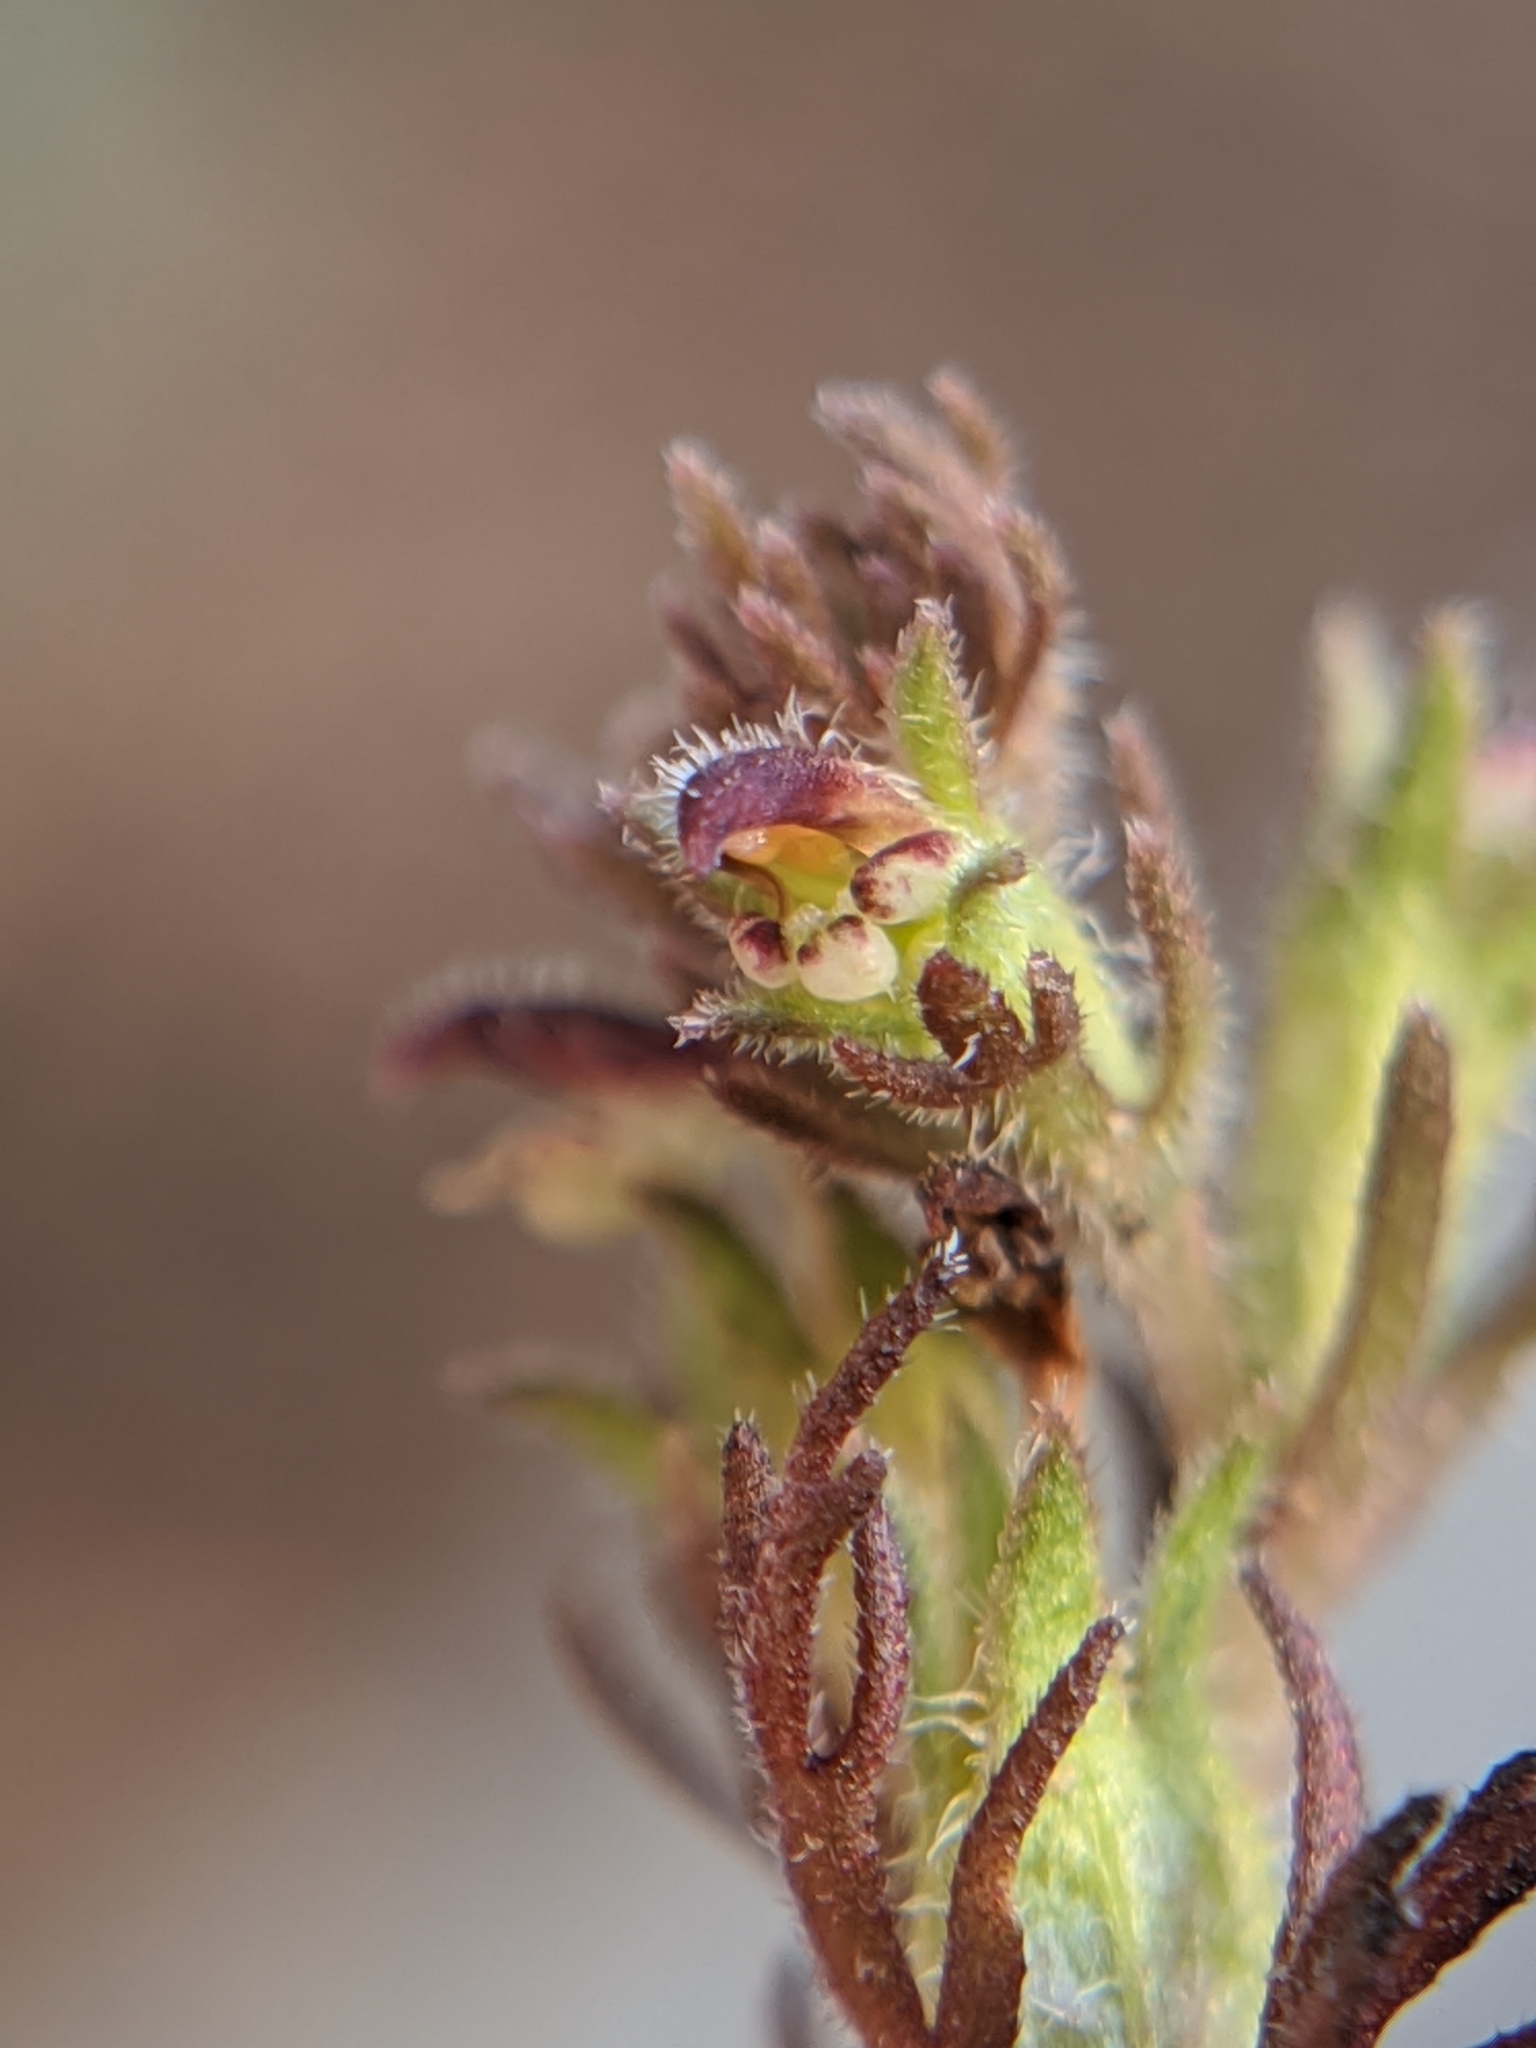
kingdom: Plantae
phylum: Tracheophyta
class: Magnoliopsida
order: Lamiales
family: Orobanchaceae
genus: Triphysaria
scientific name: Triphysaria pusilla
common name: Dwarf false owl-clover
